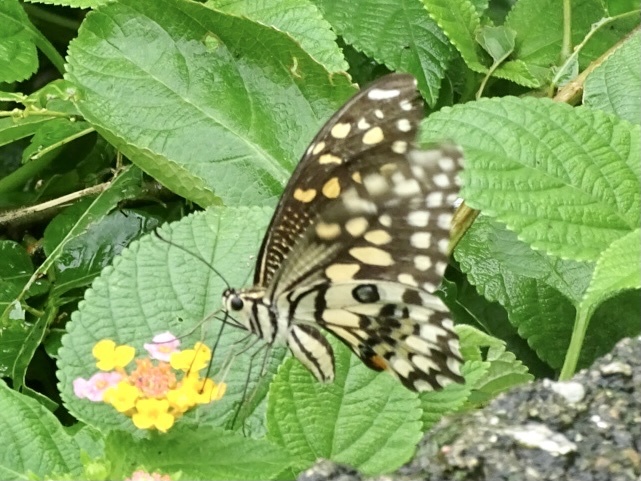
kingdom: Animalia
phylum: Arthropoda
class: Insecta
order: Lepidoptera
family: Papilionidae
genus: Papilio
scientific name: Papilio demoleus
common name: Lime butterfly
